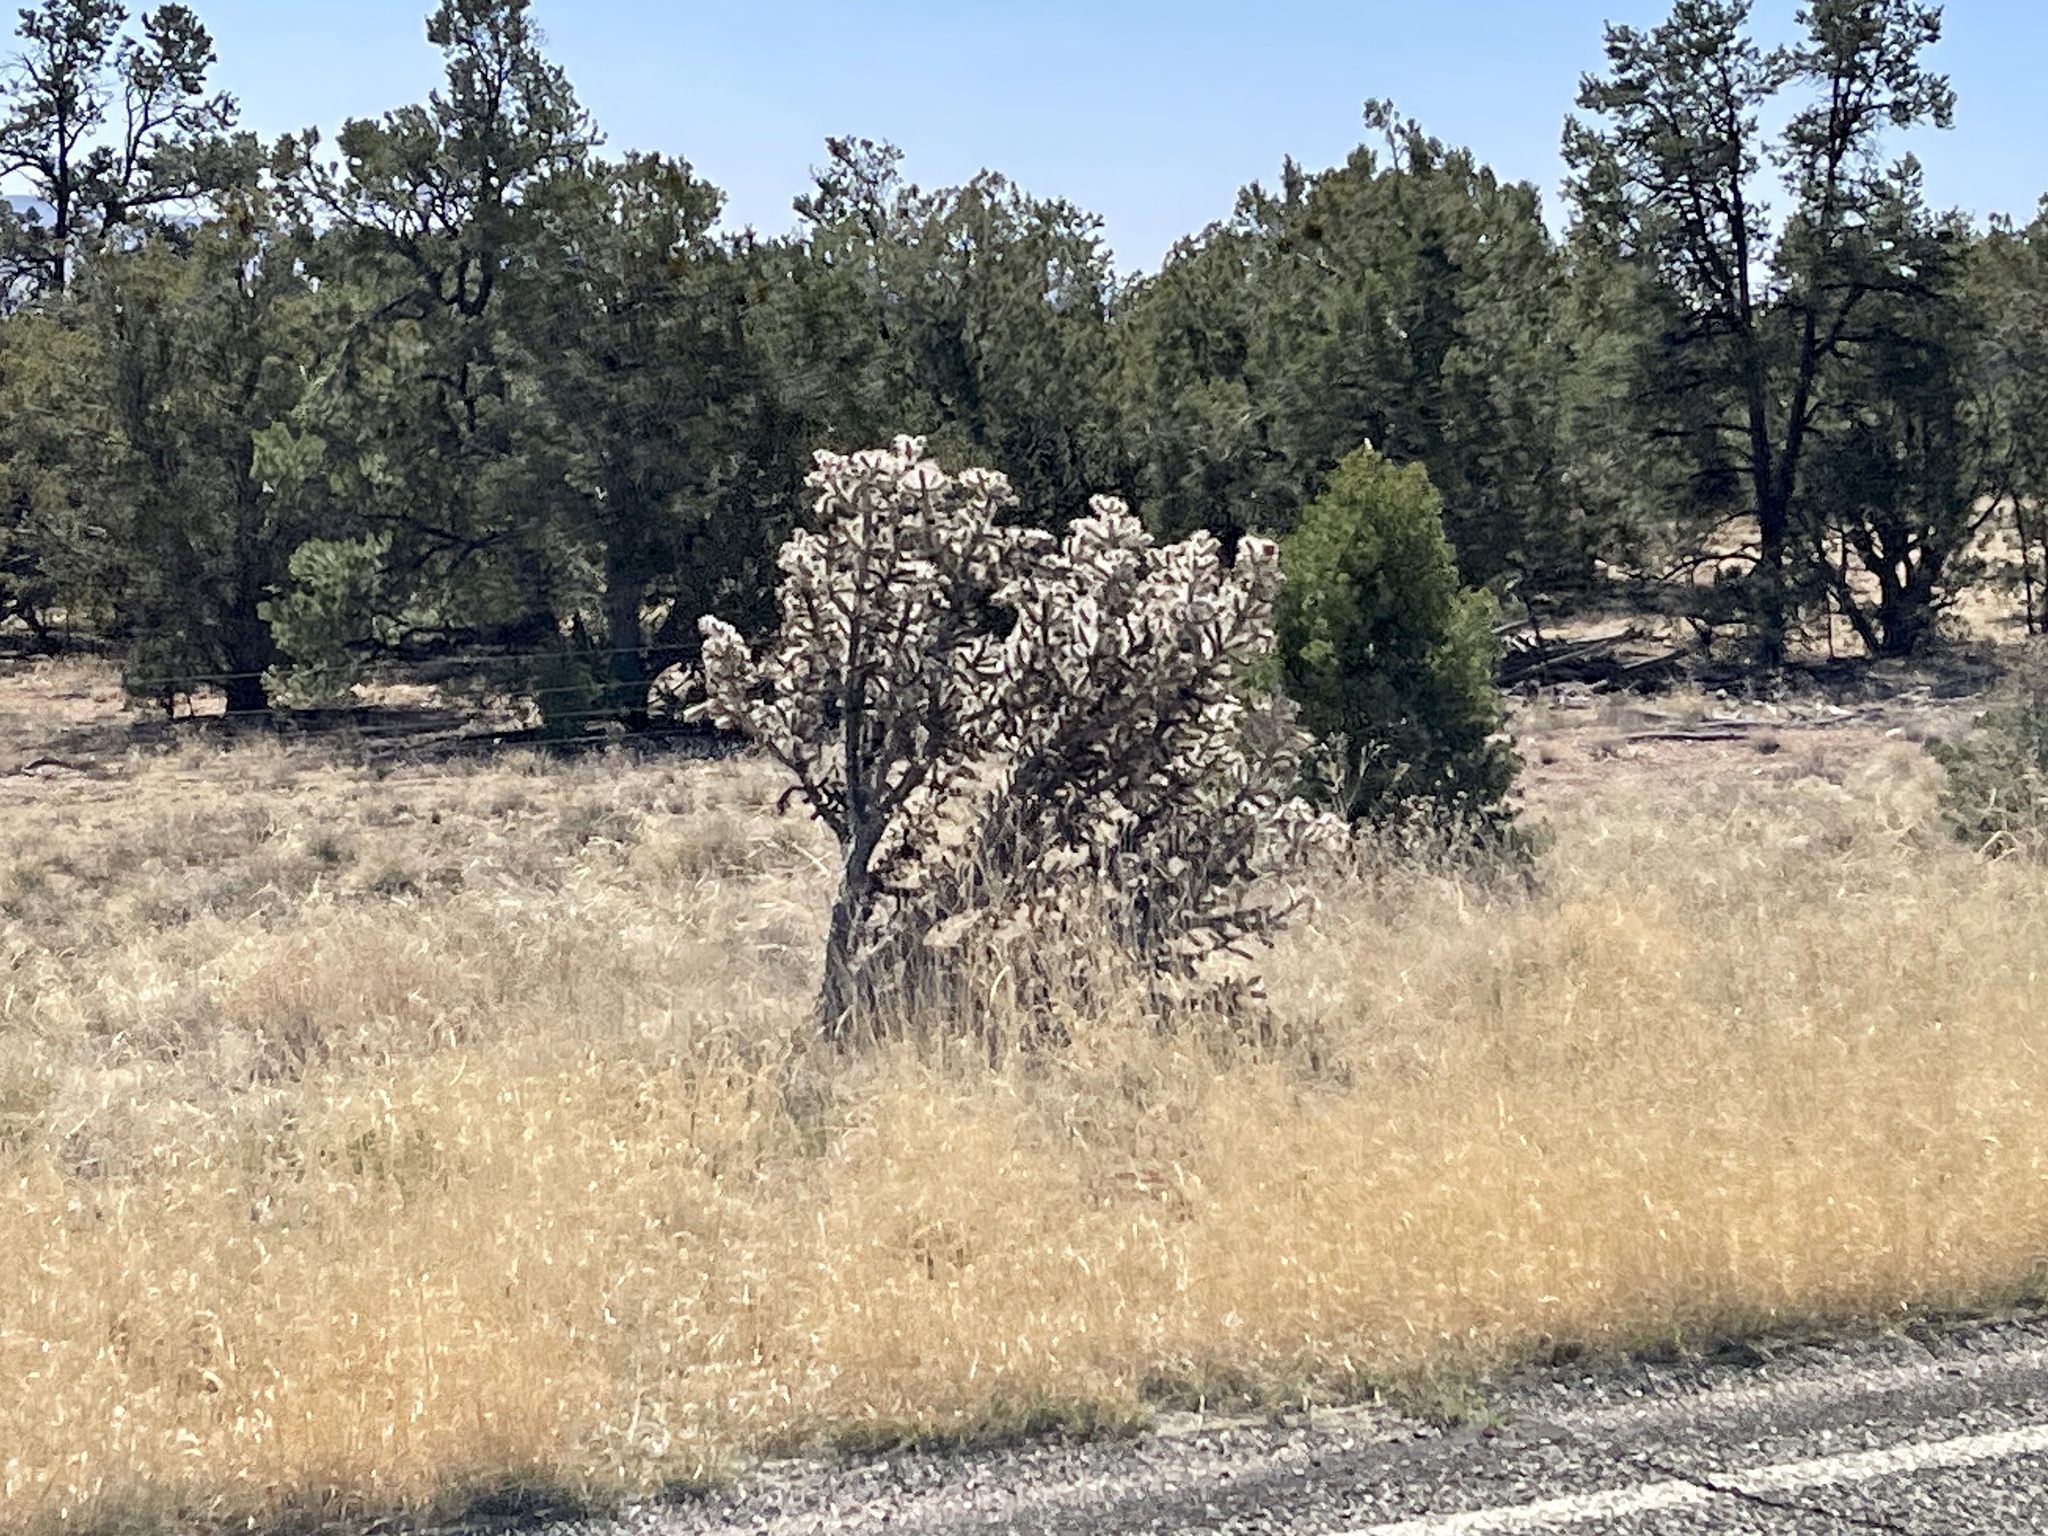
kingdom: Plantae
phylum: Tracheophyta
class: Magnoliopsida
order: Caryophyllales
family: Cactaceae
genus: Cylindropuntia
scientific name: Cylindropuntia whipplei
